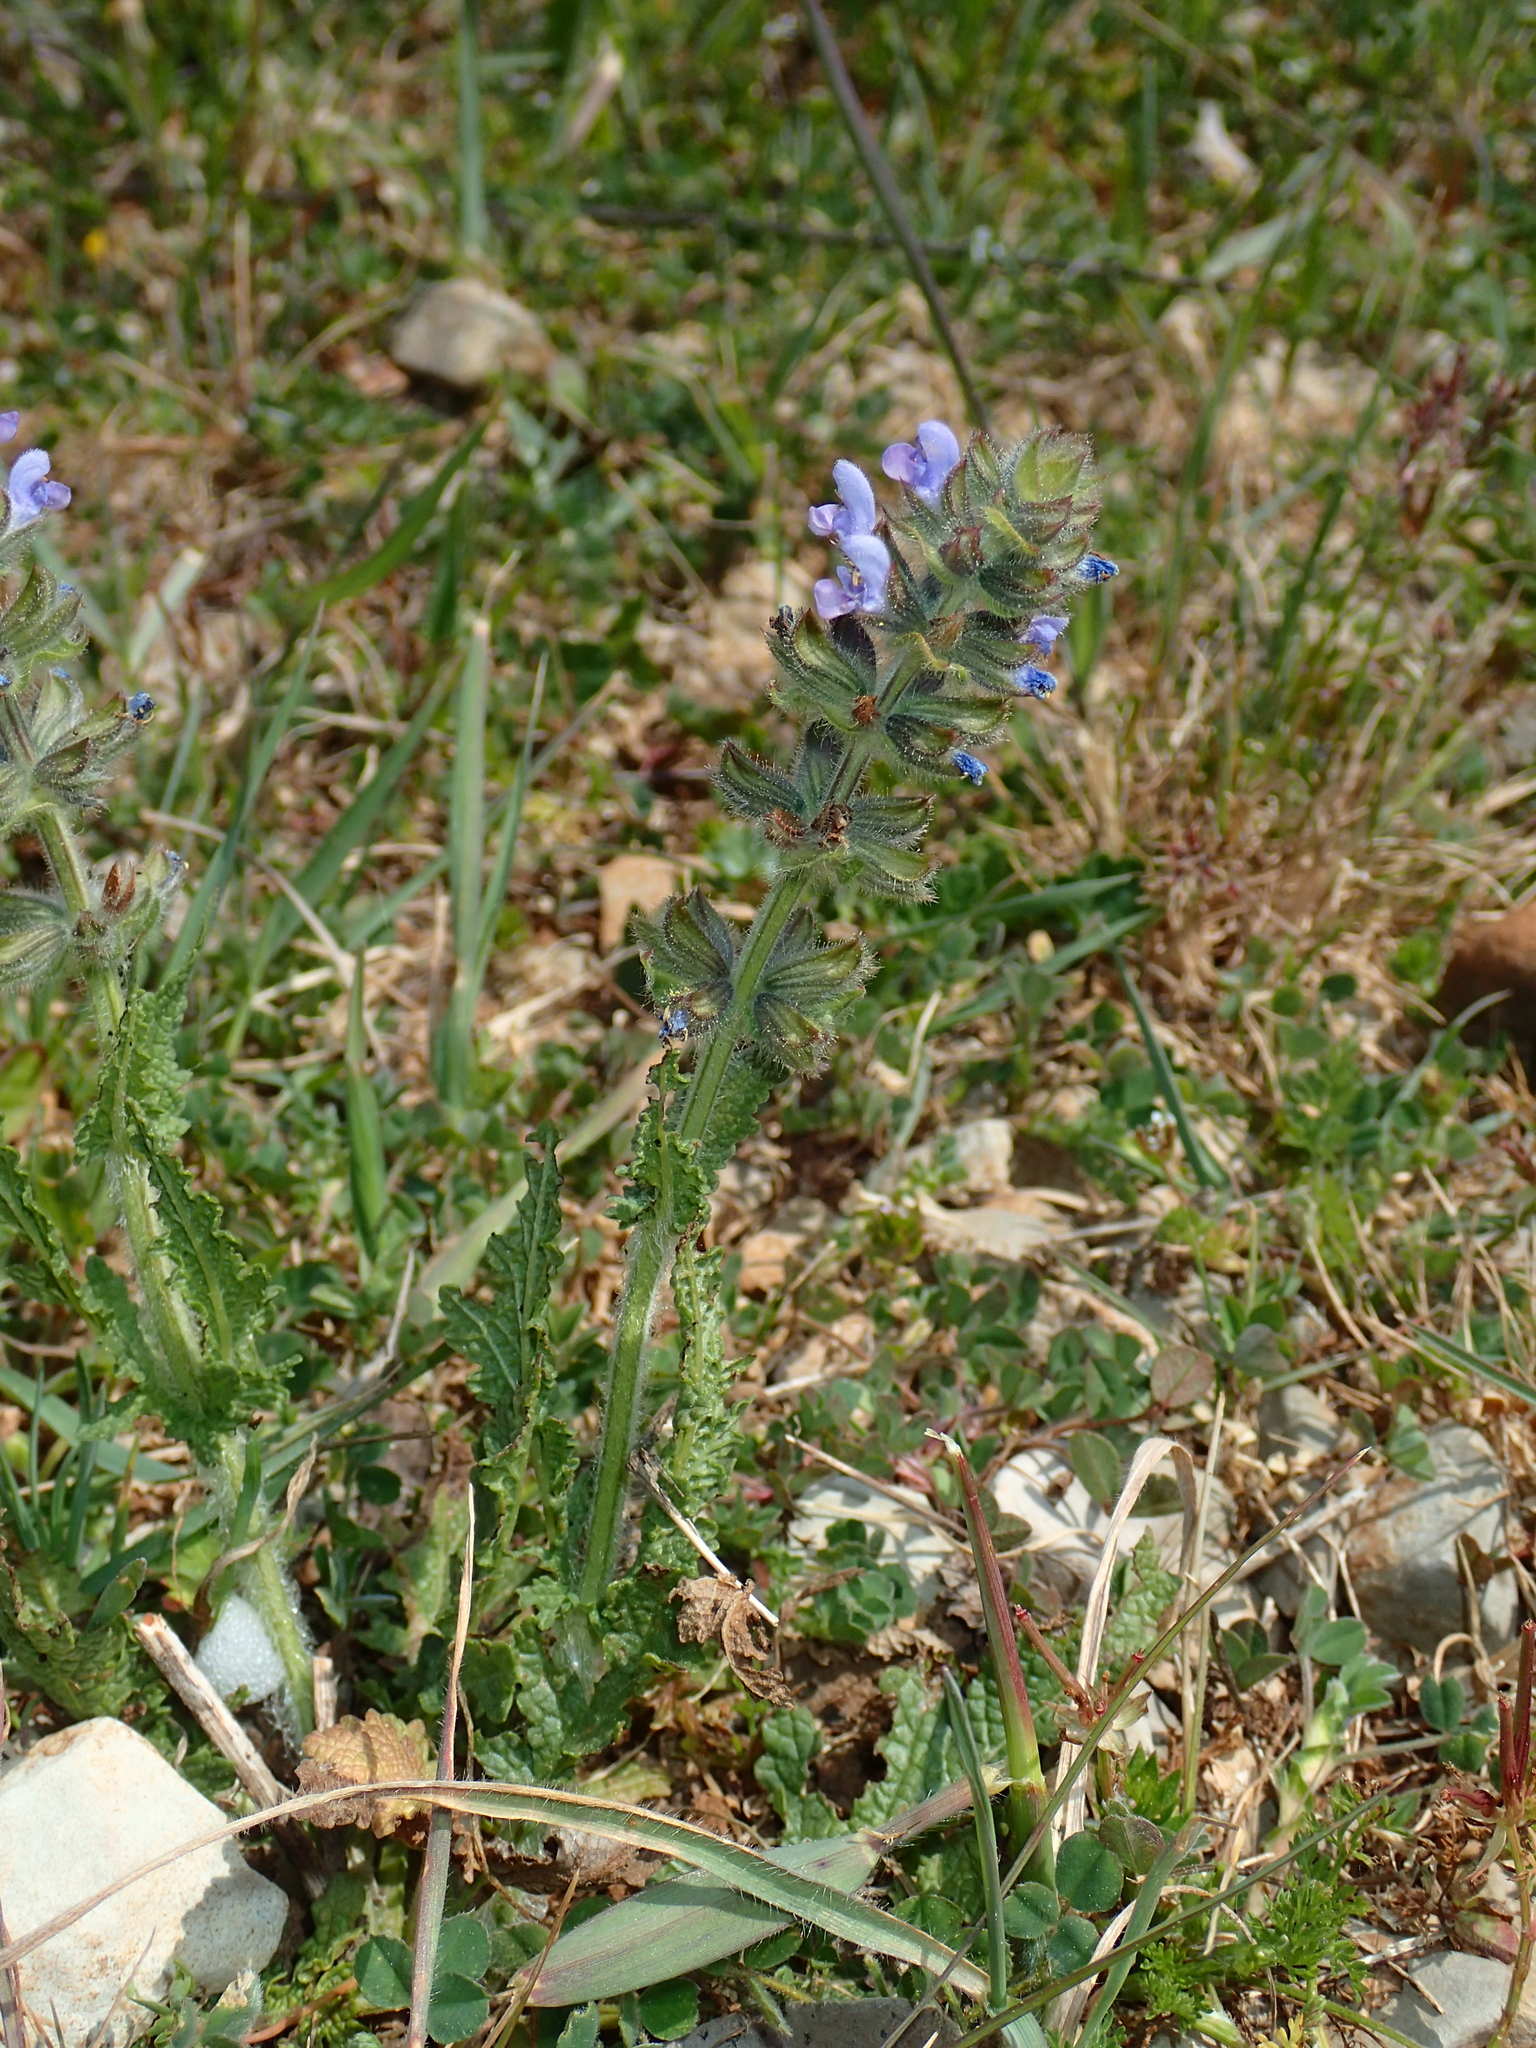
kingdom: Plantae
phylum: Tracheophyta
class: Magnoliopsida
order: Lamiales
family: Lamiaceae
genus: Salvia
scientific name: Salvia verbenaca
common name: Wild clary
